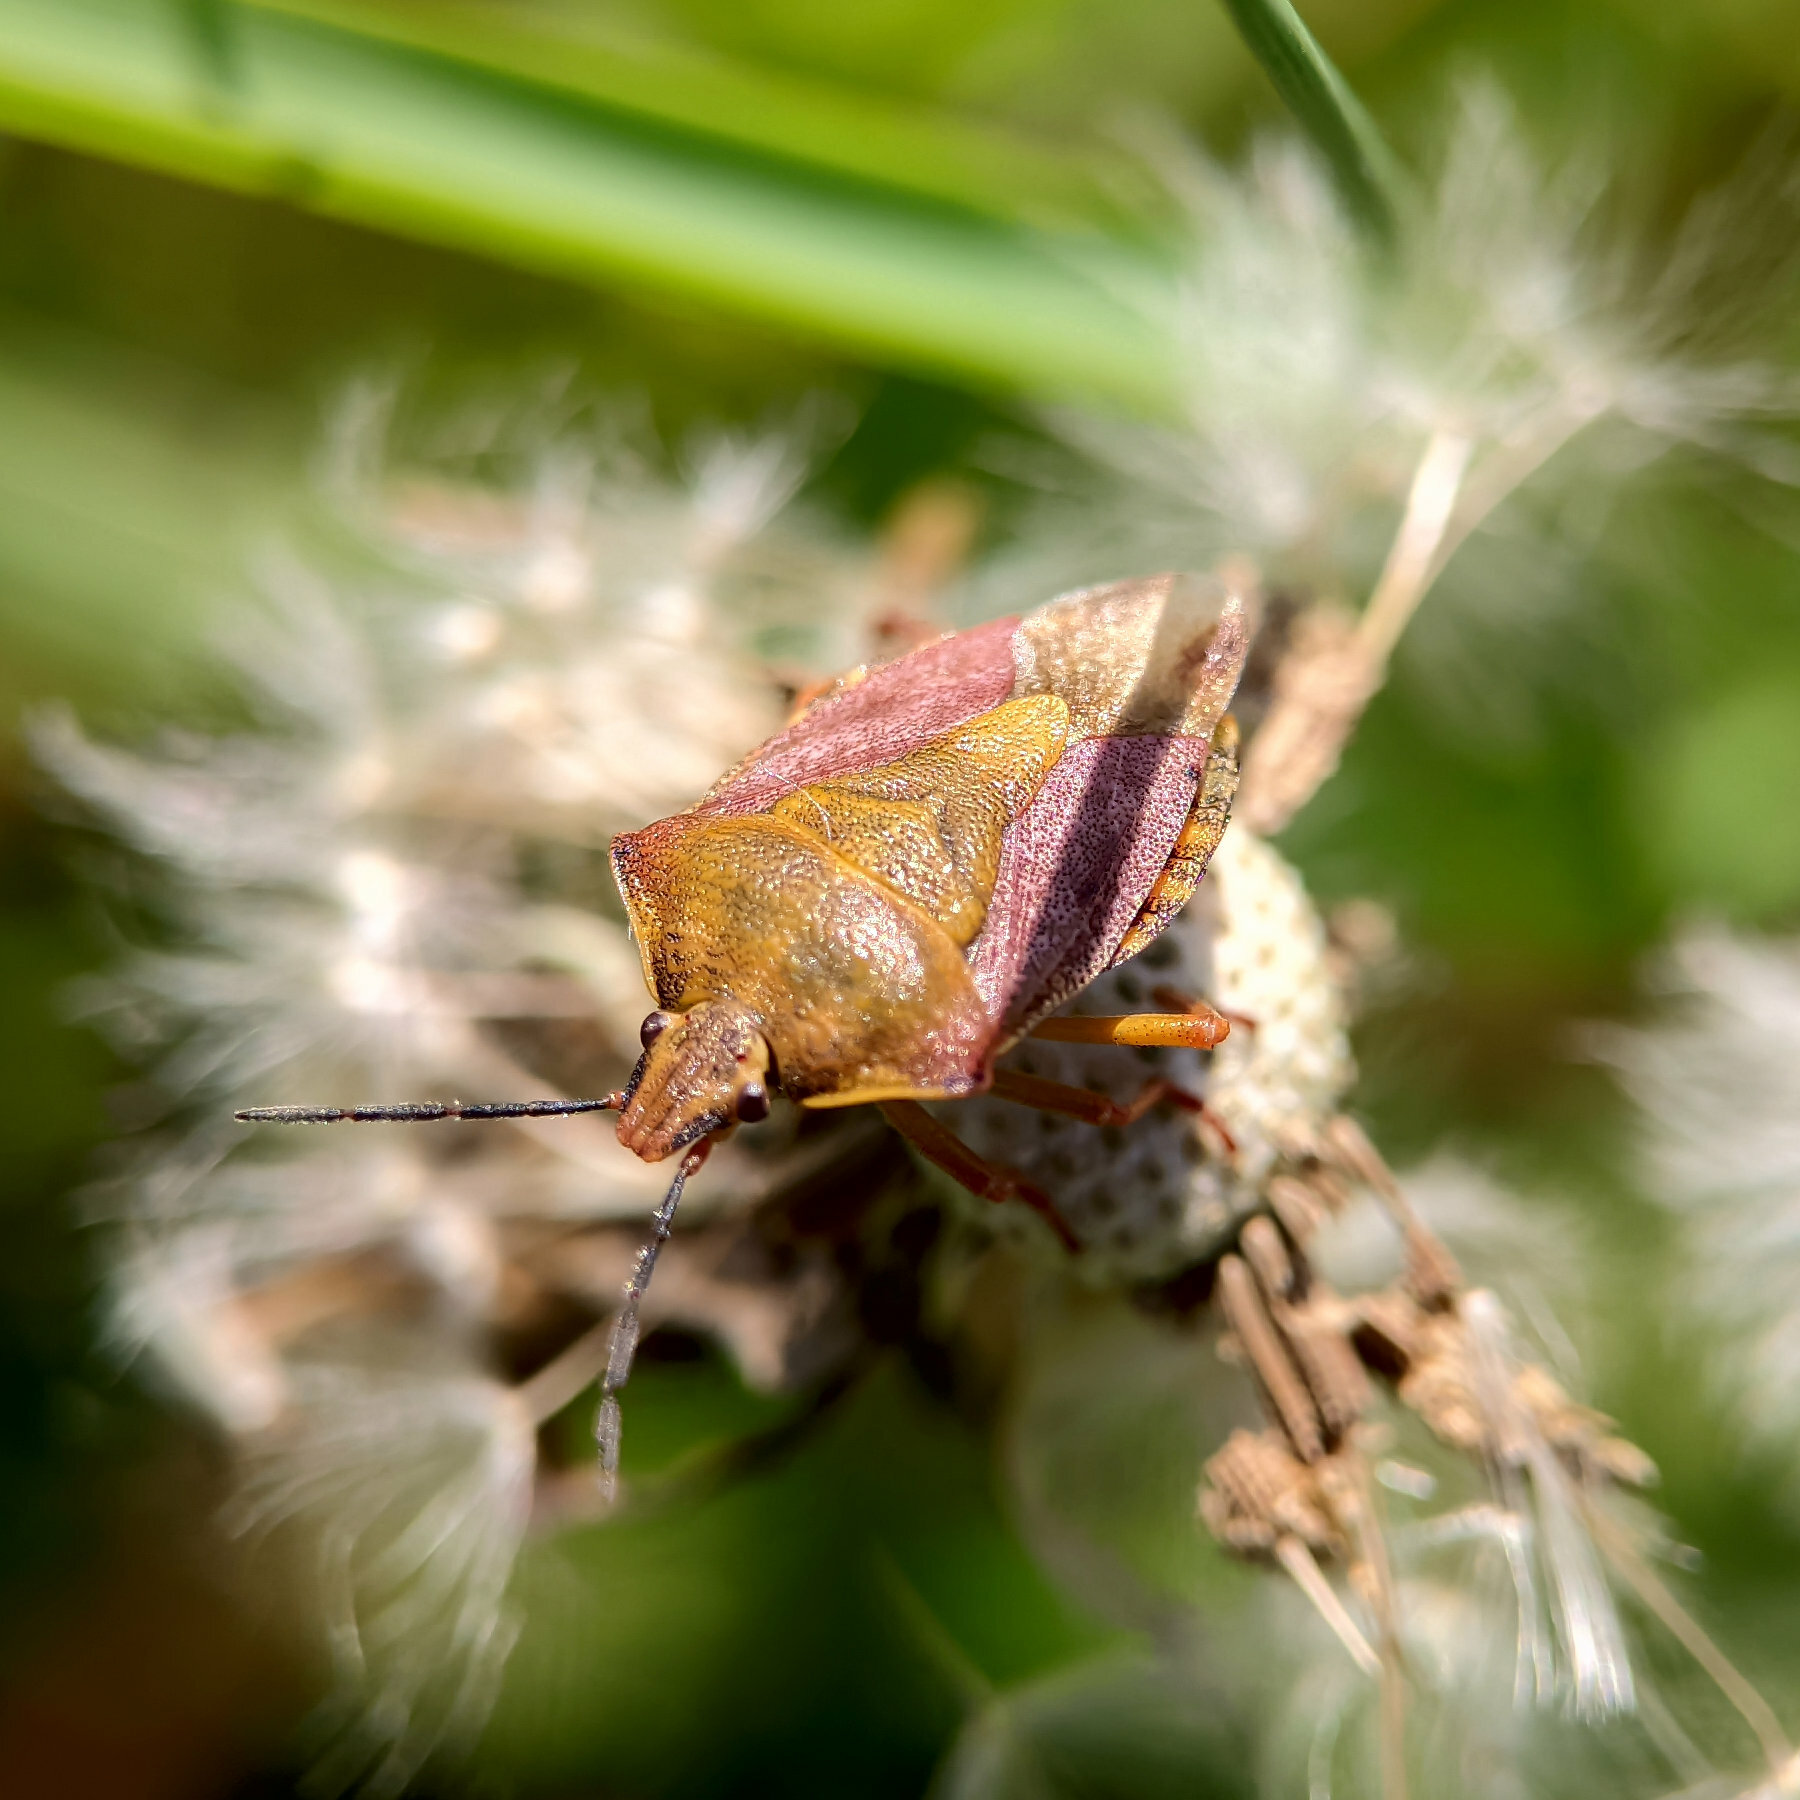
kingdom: Animalia
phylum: Arthropoda
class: Insecta
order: Hemiptera
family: Pentatomidae
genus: Carpocoris
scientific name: Carpocoris purpureipennis
